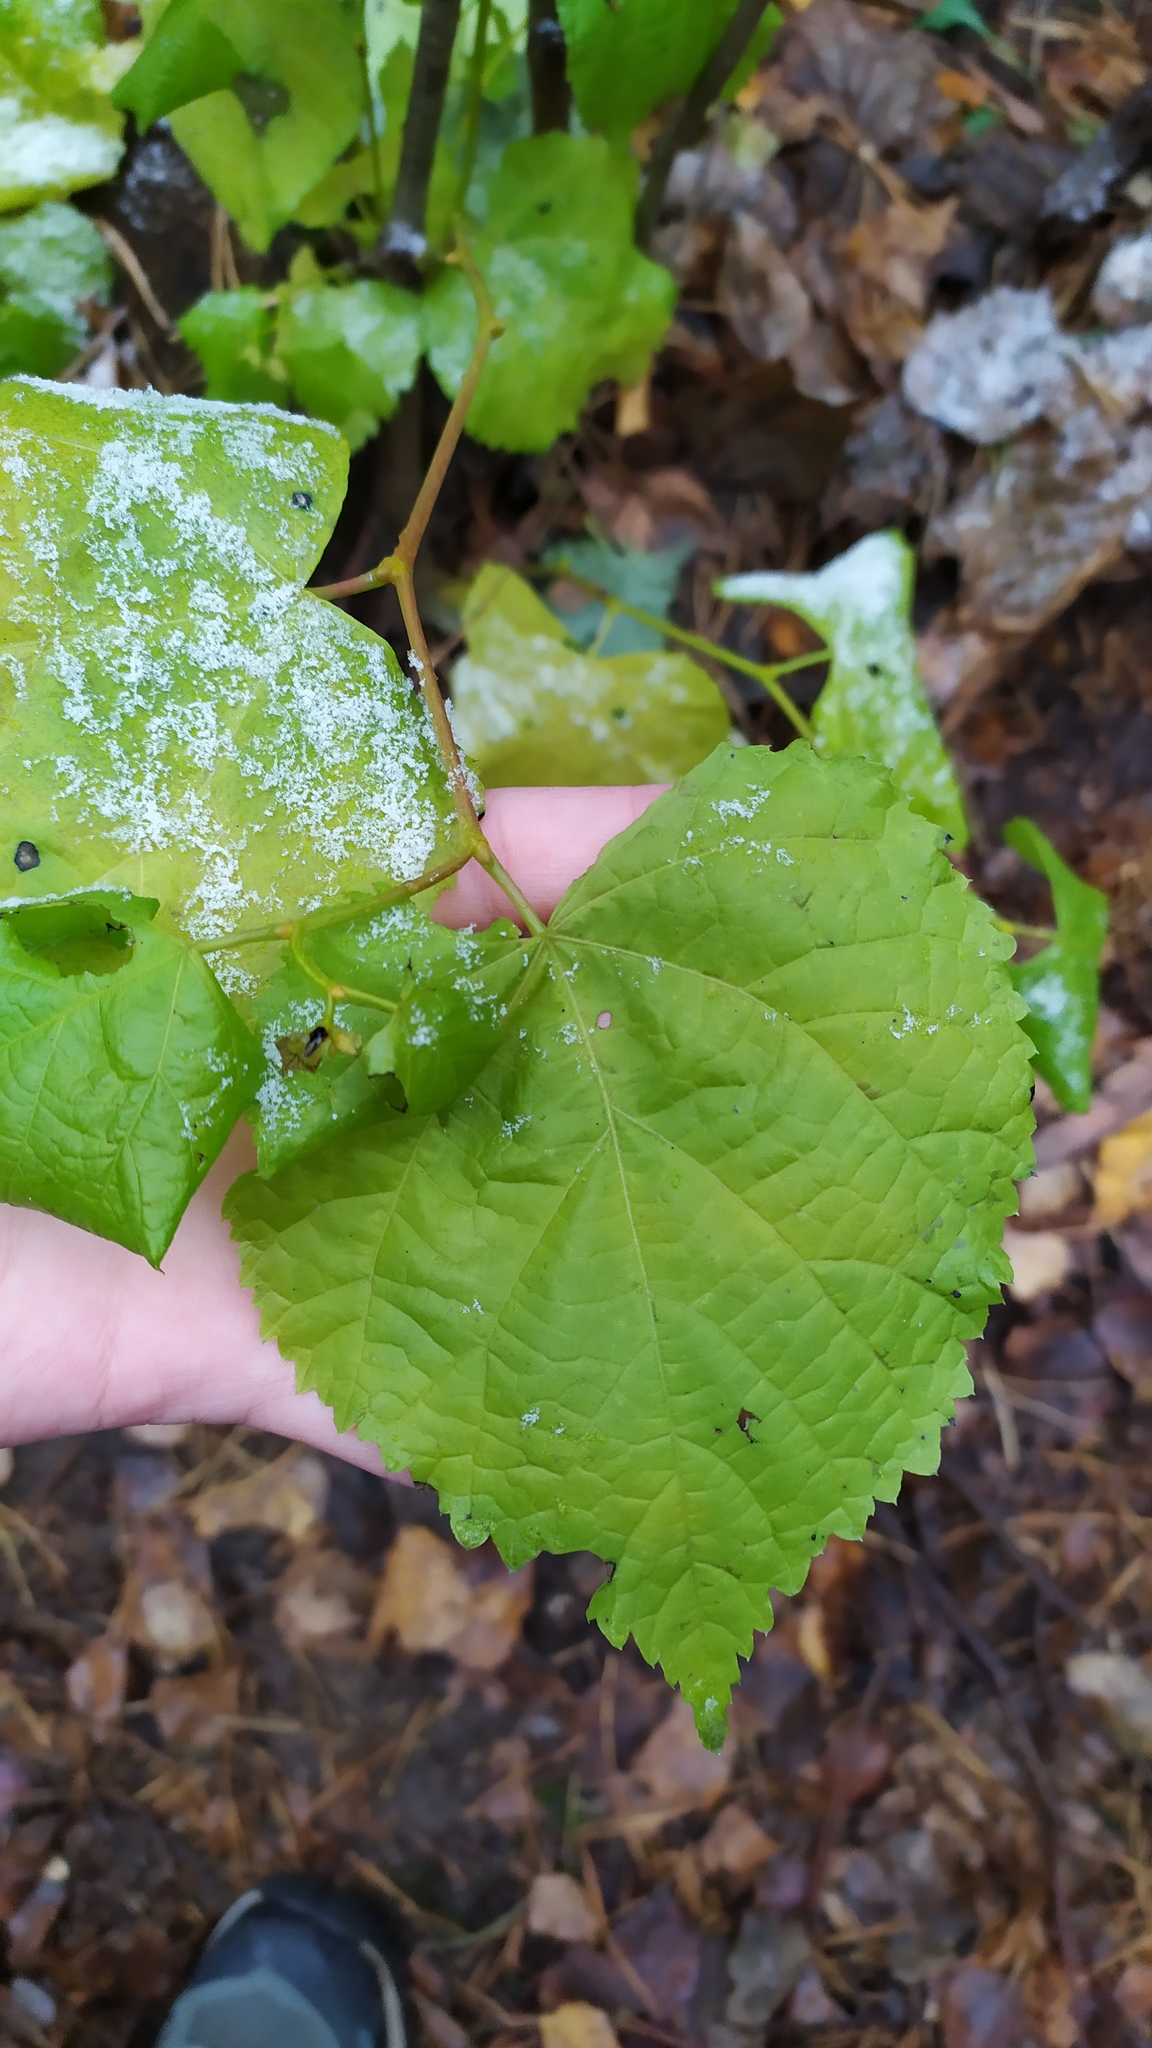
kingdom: Plantae
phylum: Tracheophyta
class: Magnoliopsida
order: Malvales
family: Malvaceae
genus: Tilia
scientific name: Tilia cordata
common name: Small-leaved lime
